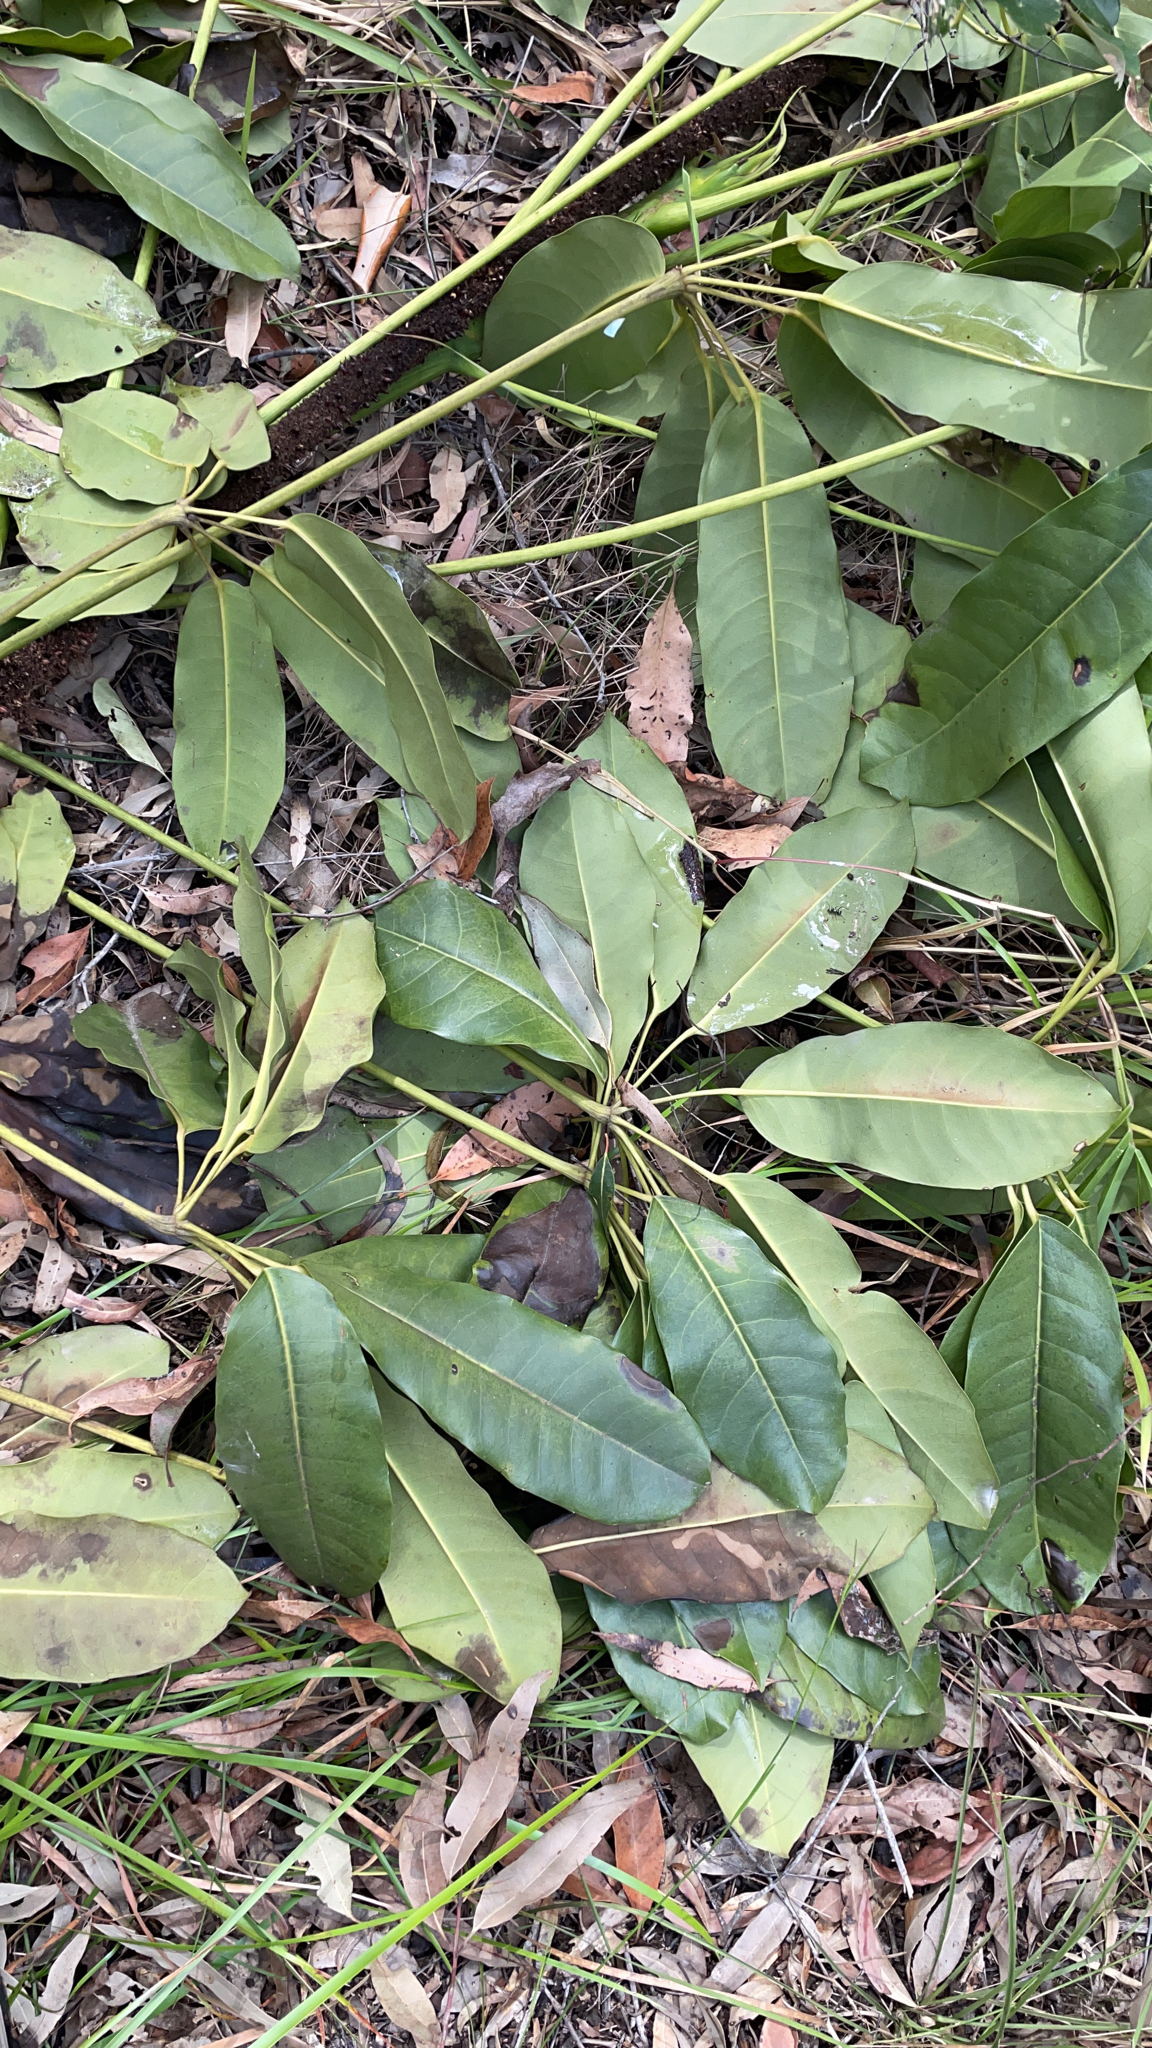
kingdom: Plantae
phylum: Tracheophyta
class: Magnoliopsida
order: Apiales
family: Araliaceae
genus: Heptapleurum
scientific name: Heptapleurum actinophyllum
